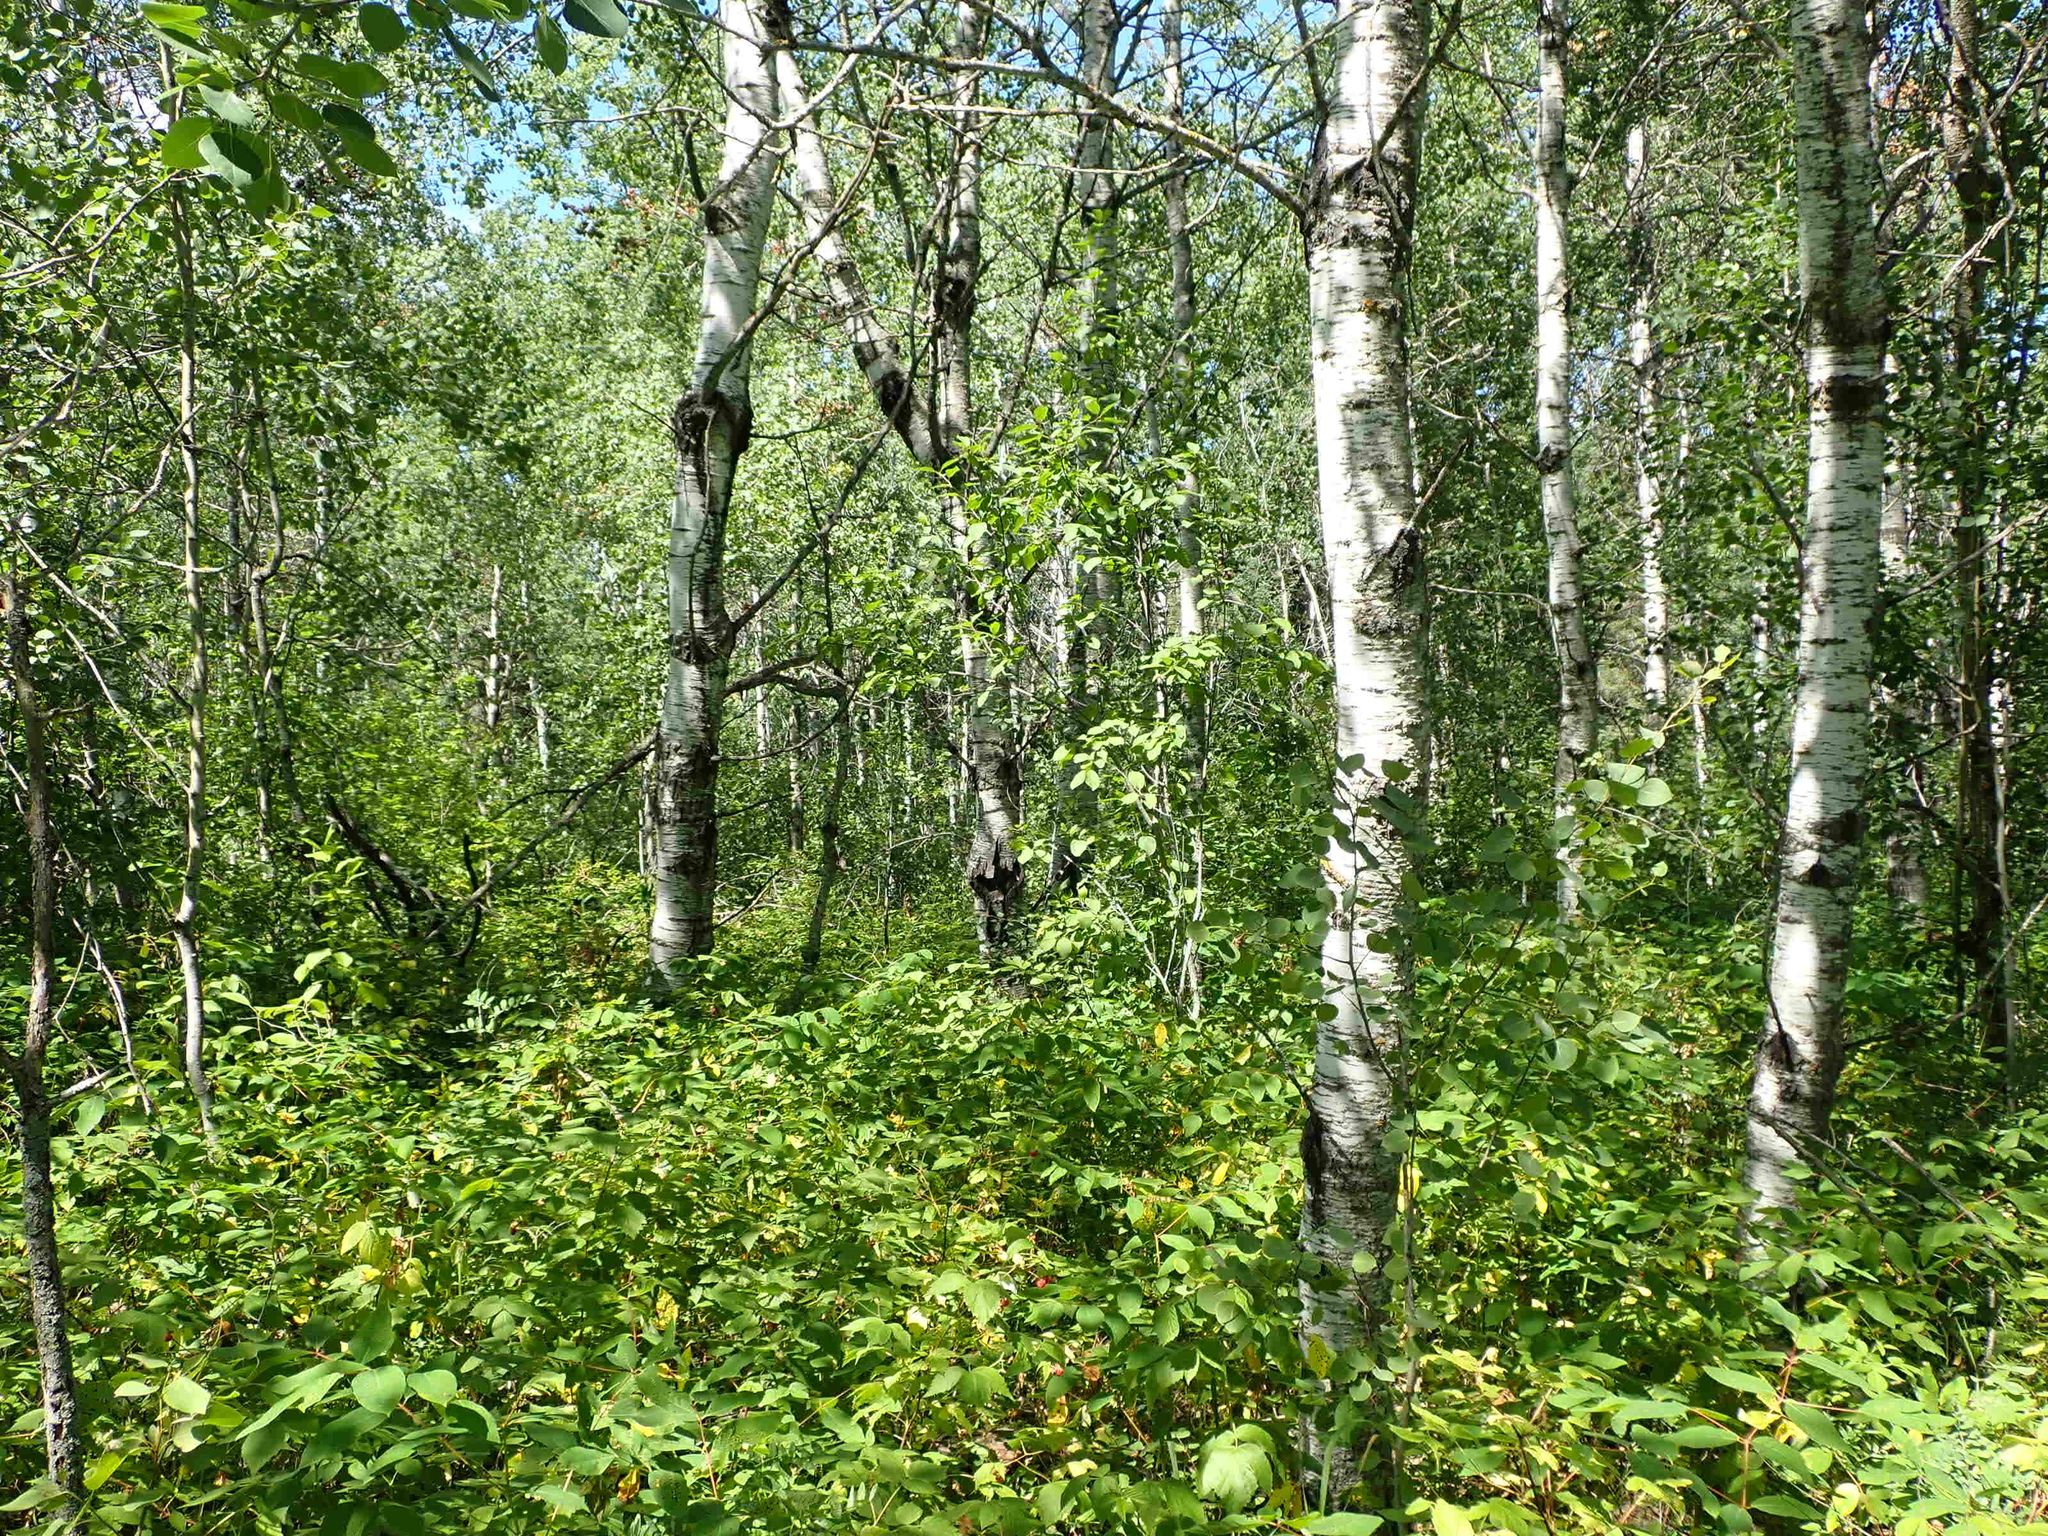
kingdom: Plantae
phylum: Tracheophyta
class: Magnoliopsida
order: Malpighiales
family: Salicaceae
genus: Populus
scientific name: Populus tremuloides
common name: Quaking aspen
